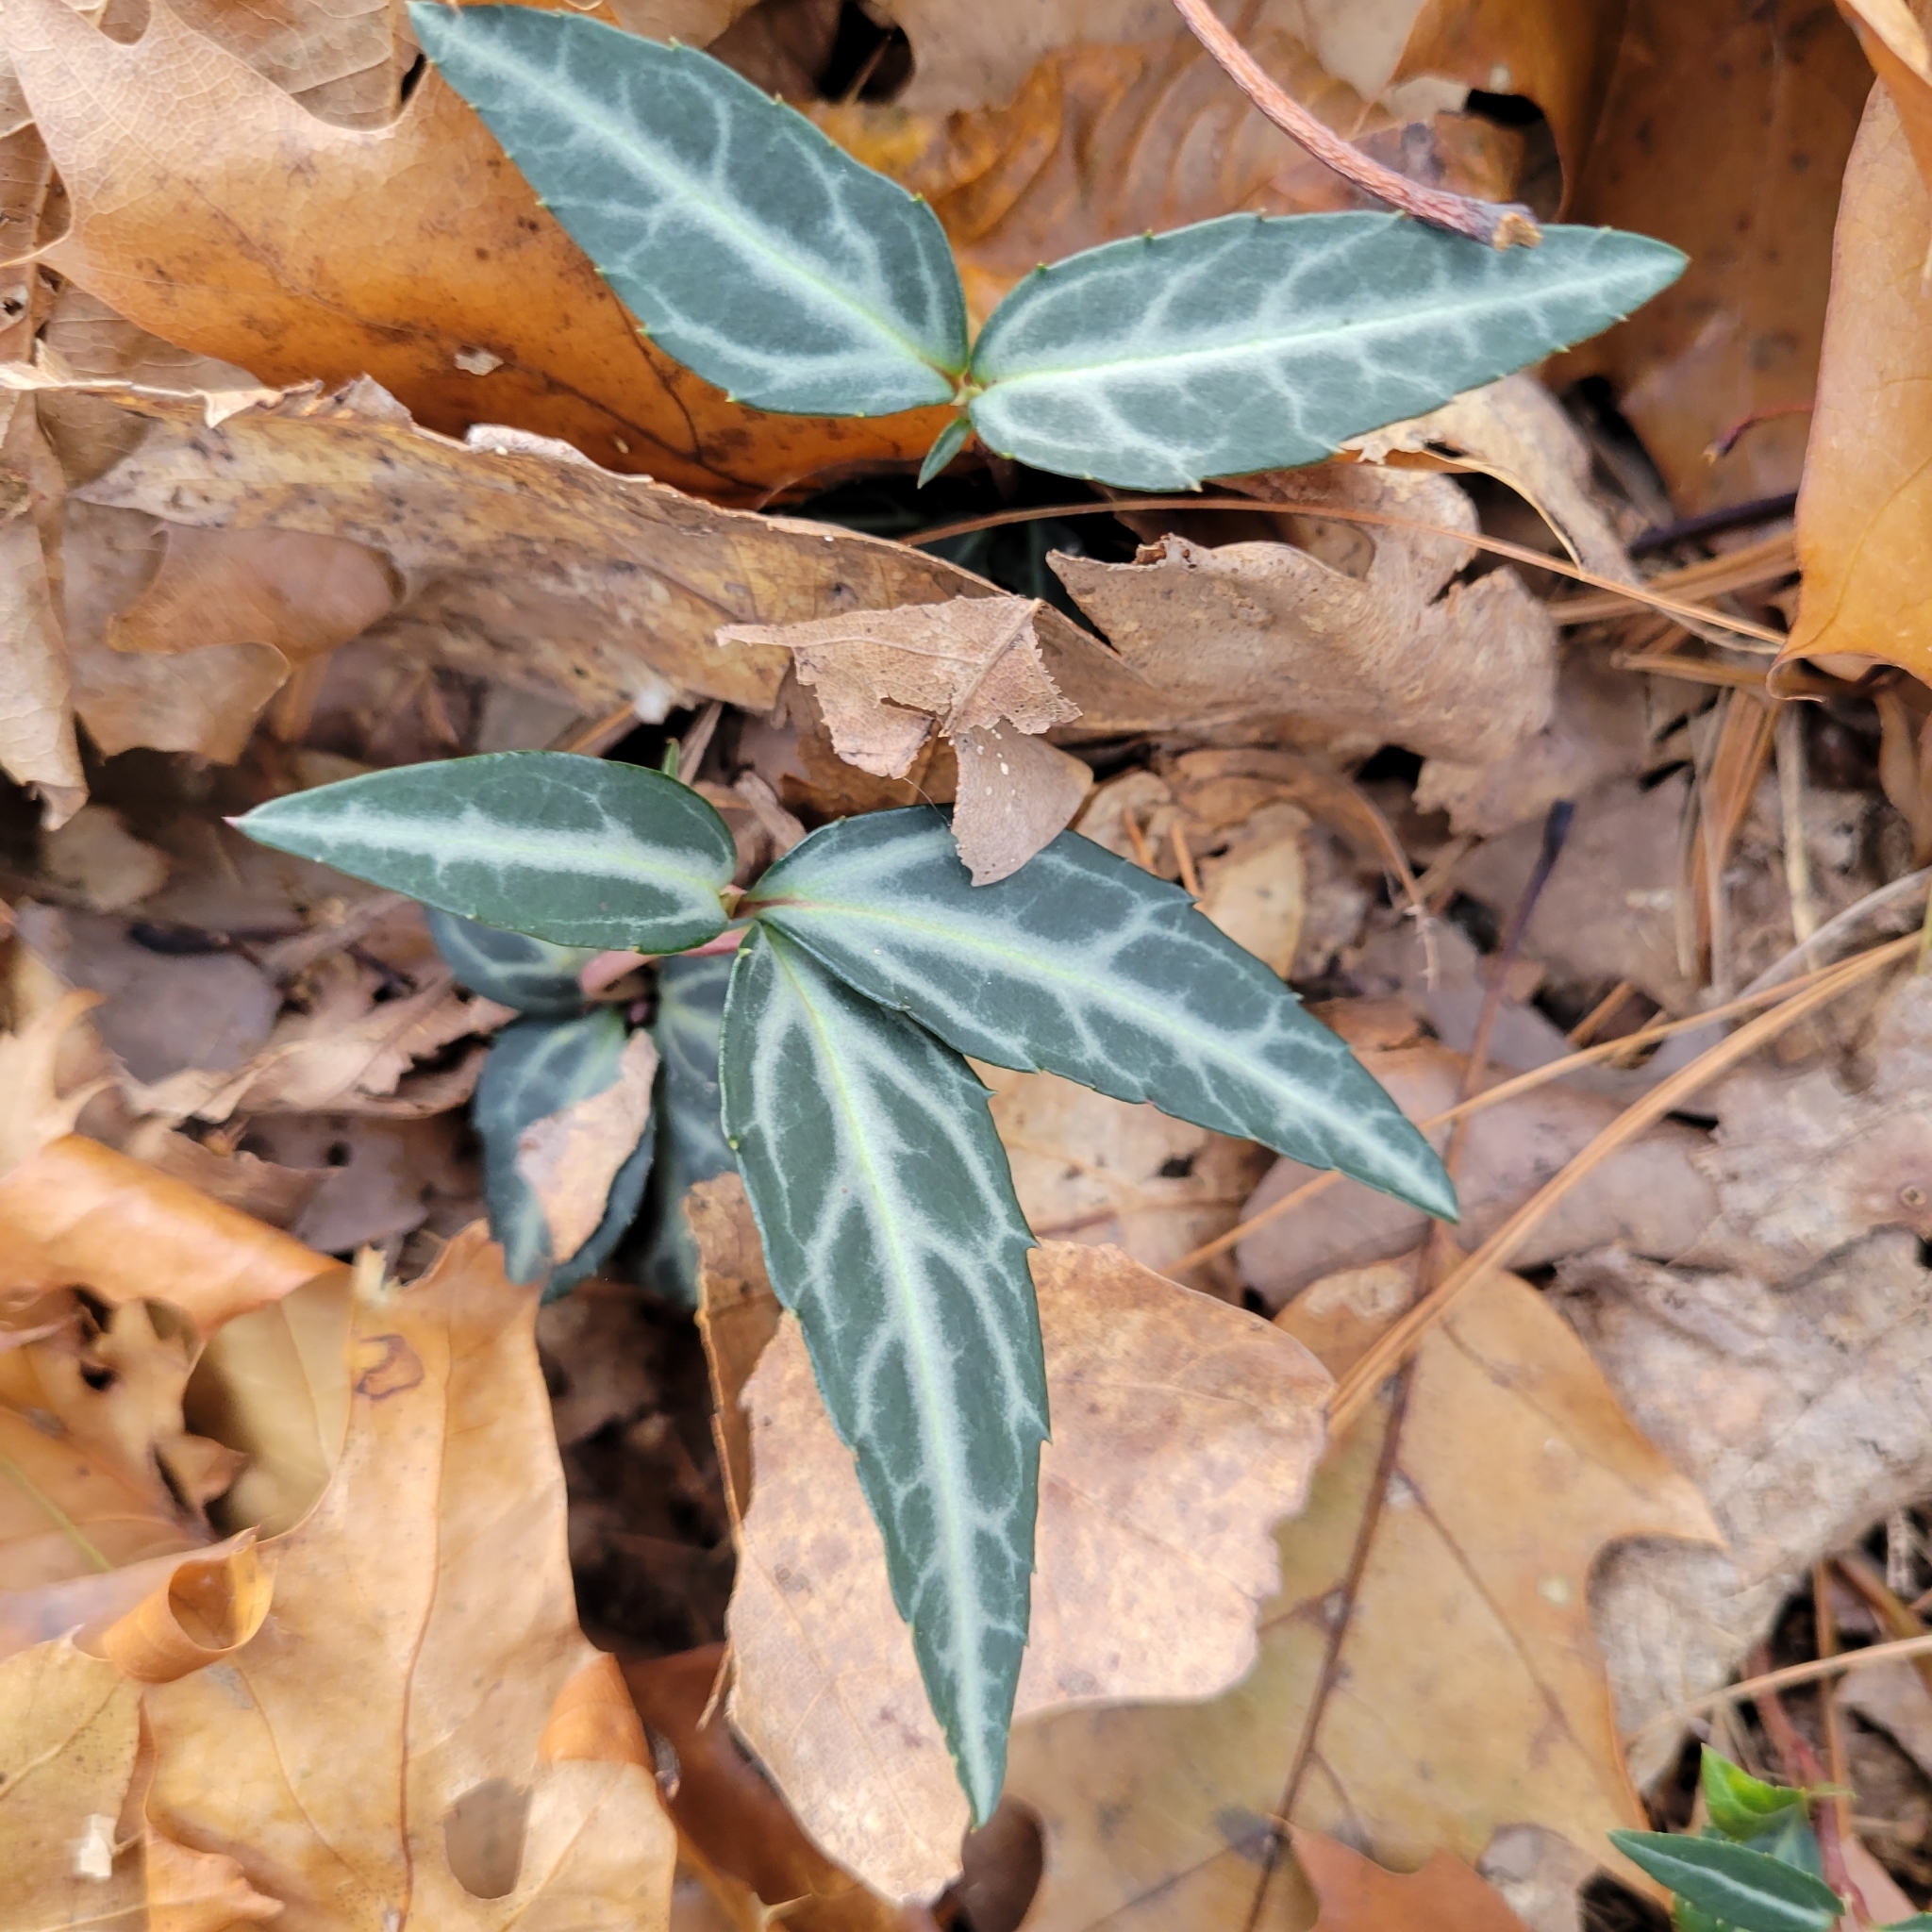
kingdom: Plantae
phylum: Tracheophyta
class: Magnoliopsida
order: Ericales
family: Ericaceae
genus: Chimaphila
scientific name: Chimaphila maculata
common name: Spotted pipsissewa
